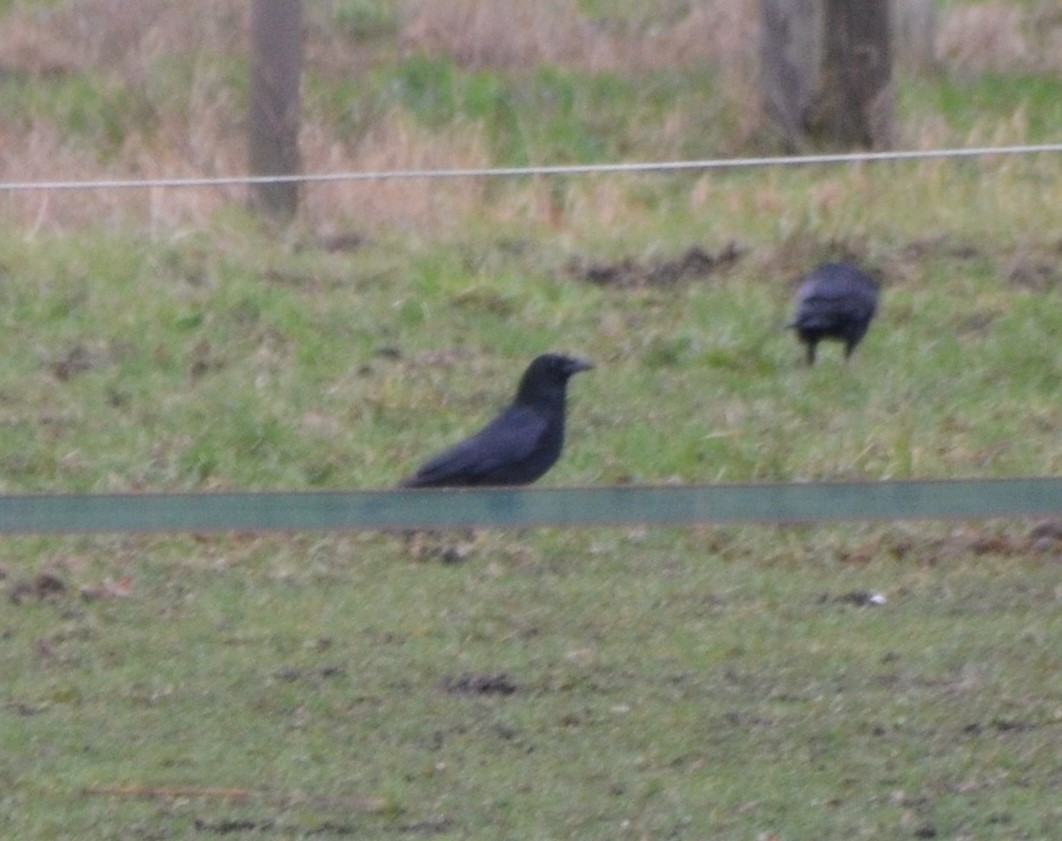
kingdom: Animalia
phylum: Chordata
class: Aves
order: Passeriformes
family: Corvidae
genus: Corvus
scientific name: Corvus corone
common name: Carrion crow
